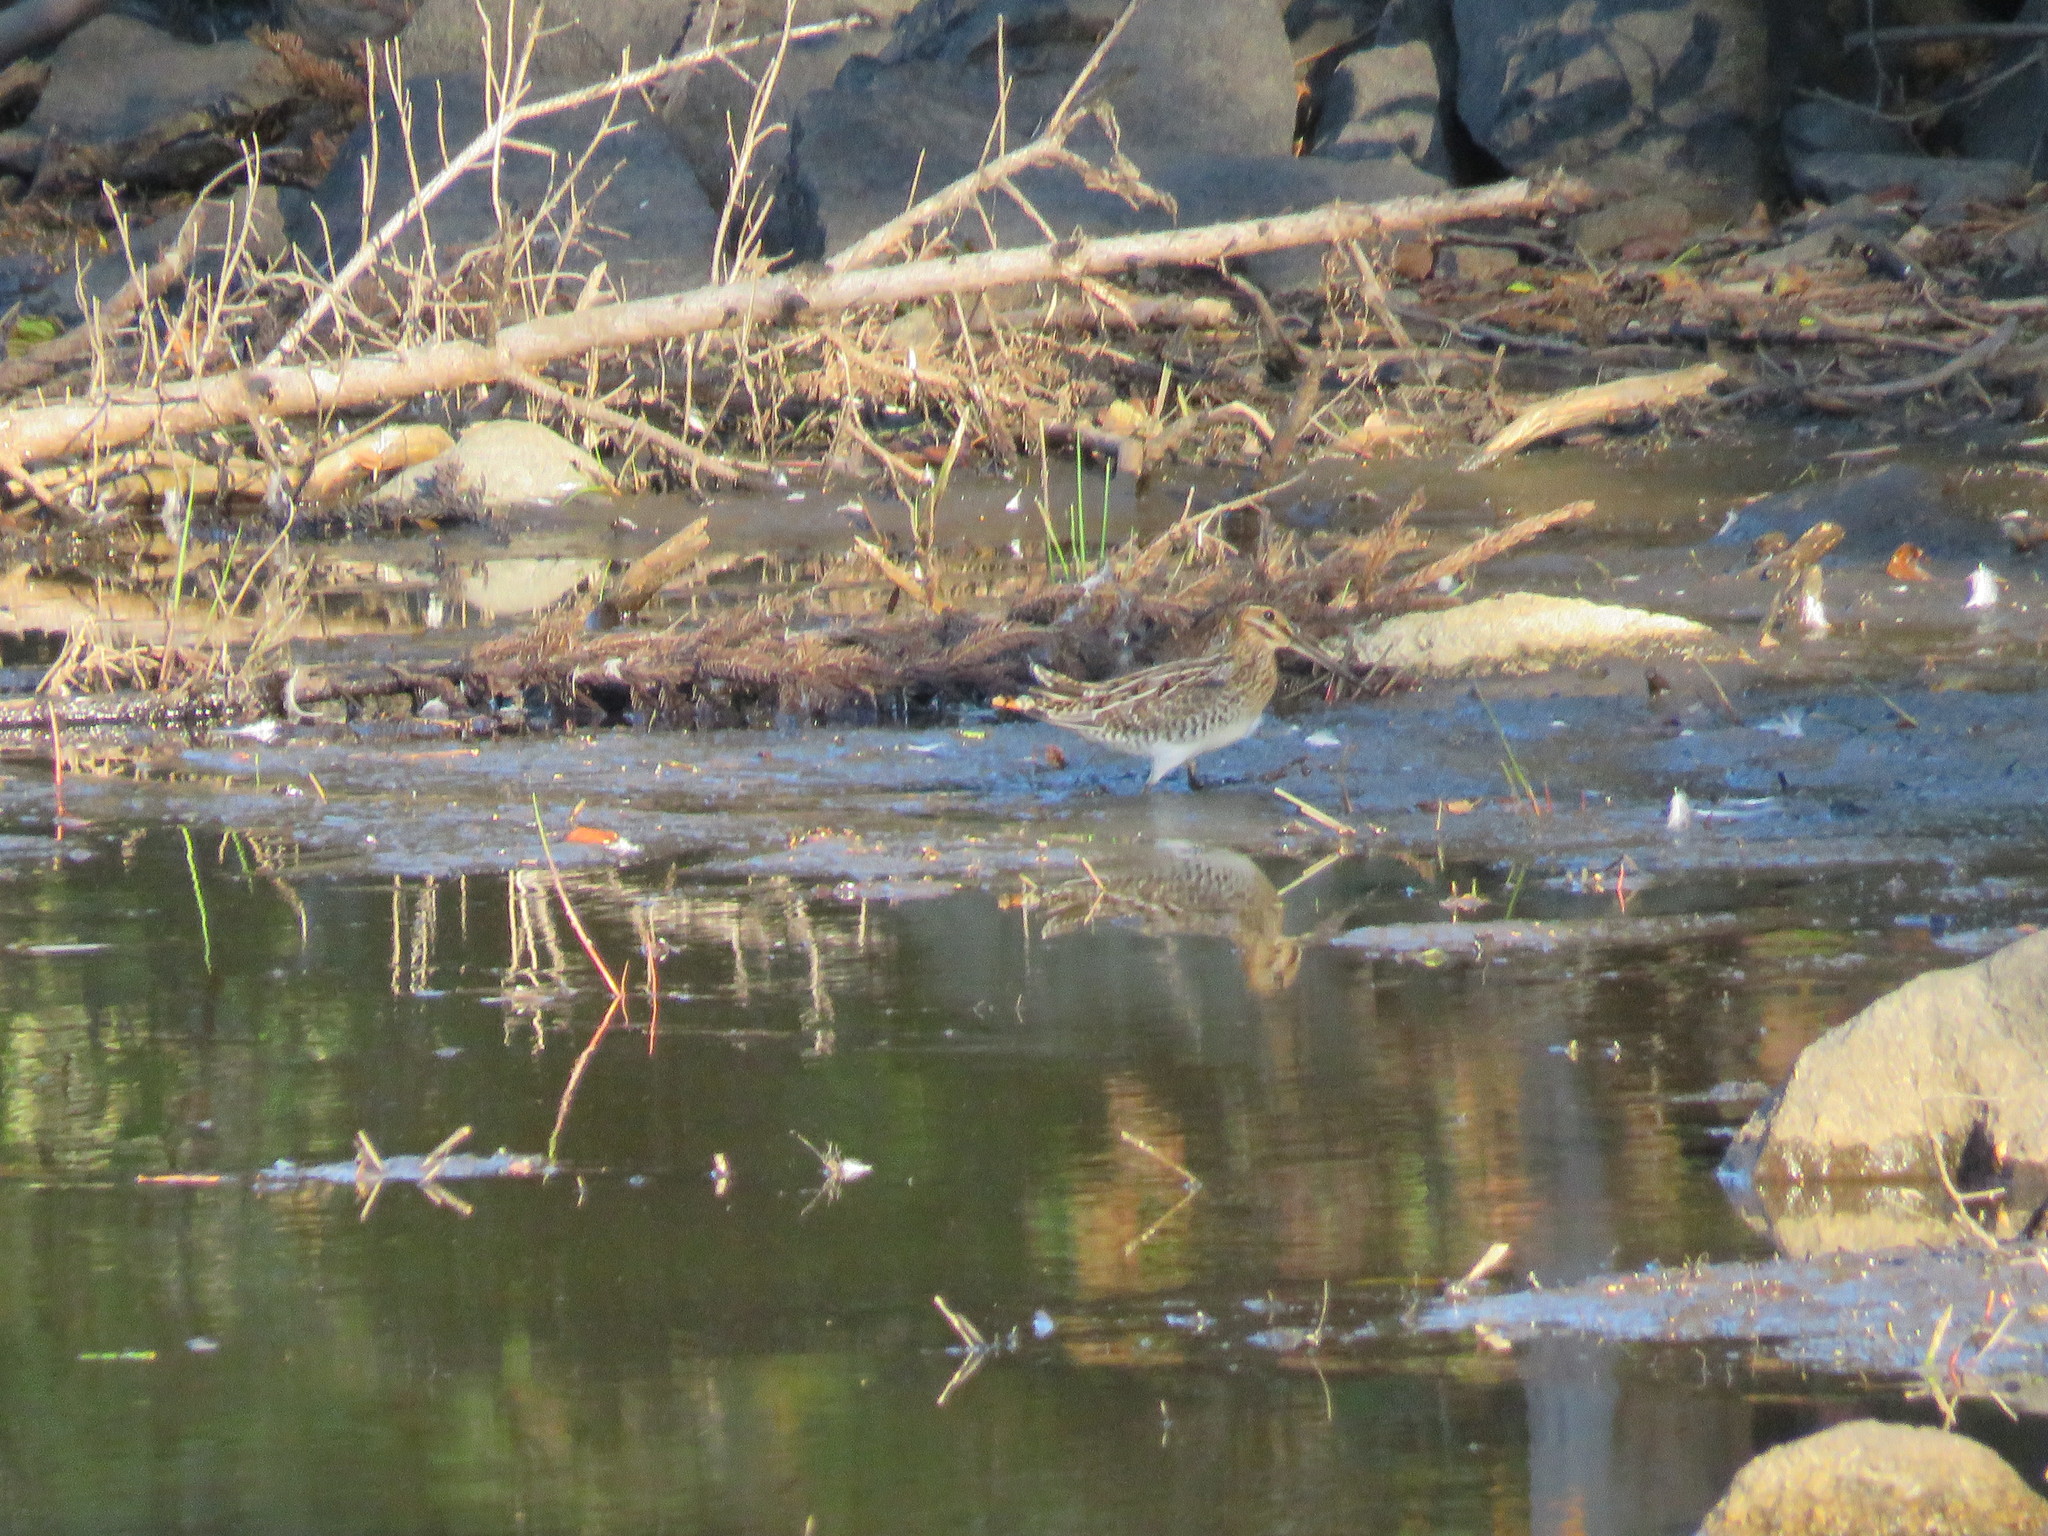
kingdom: Animalia
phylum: Chordata
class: Aves
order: Charadriiformes
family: Scolopacidae
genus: Gallinago
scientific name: Gallinago delicata
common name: Wilson's snipe
